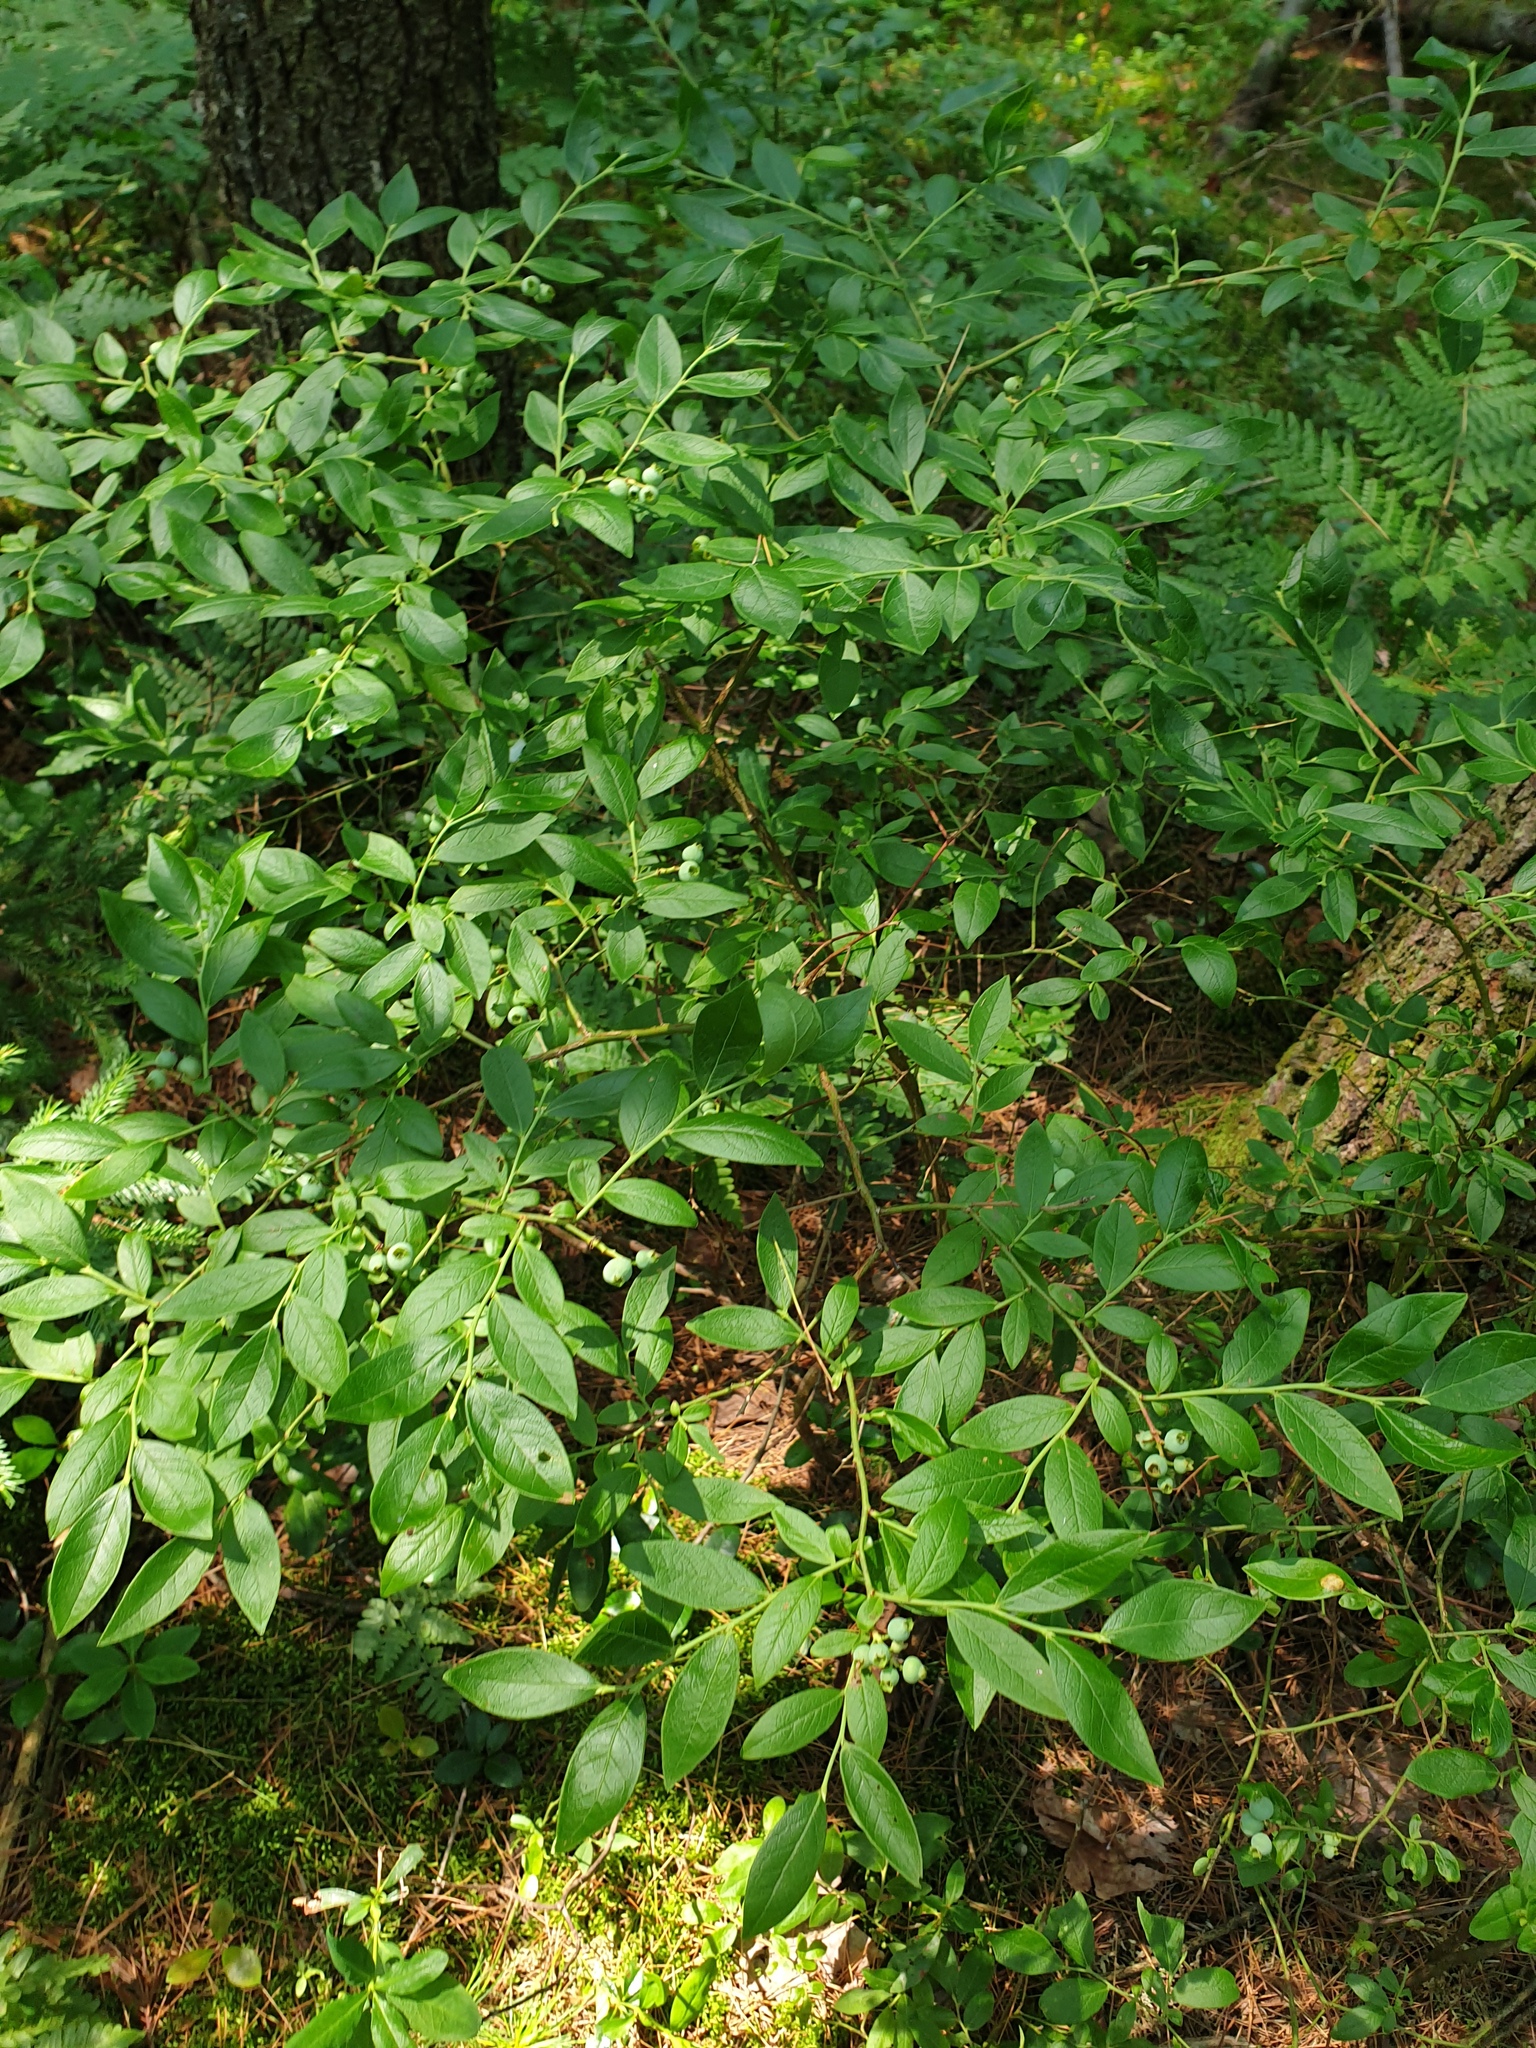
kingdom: Plantae
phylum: Tracheophyta
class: Magnoliopsida
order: Ericales
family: Ericaceae
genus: Vaccinium
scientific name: Vaccinium corymbosum
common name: Blueberry
